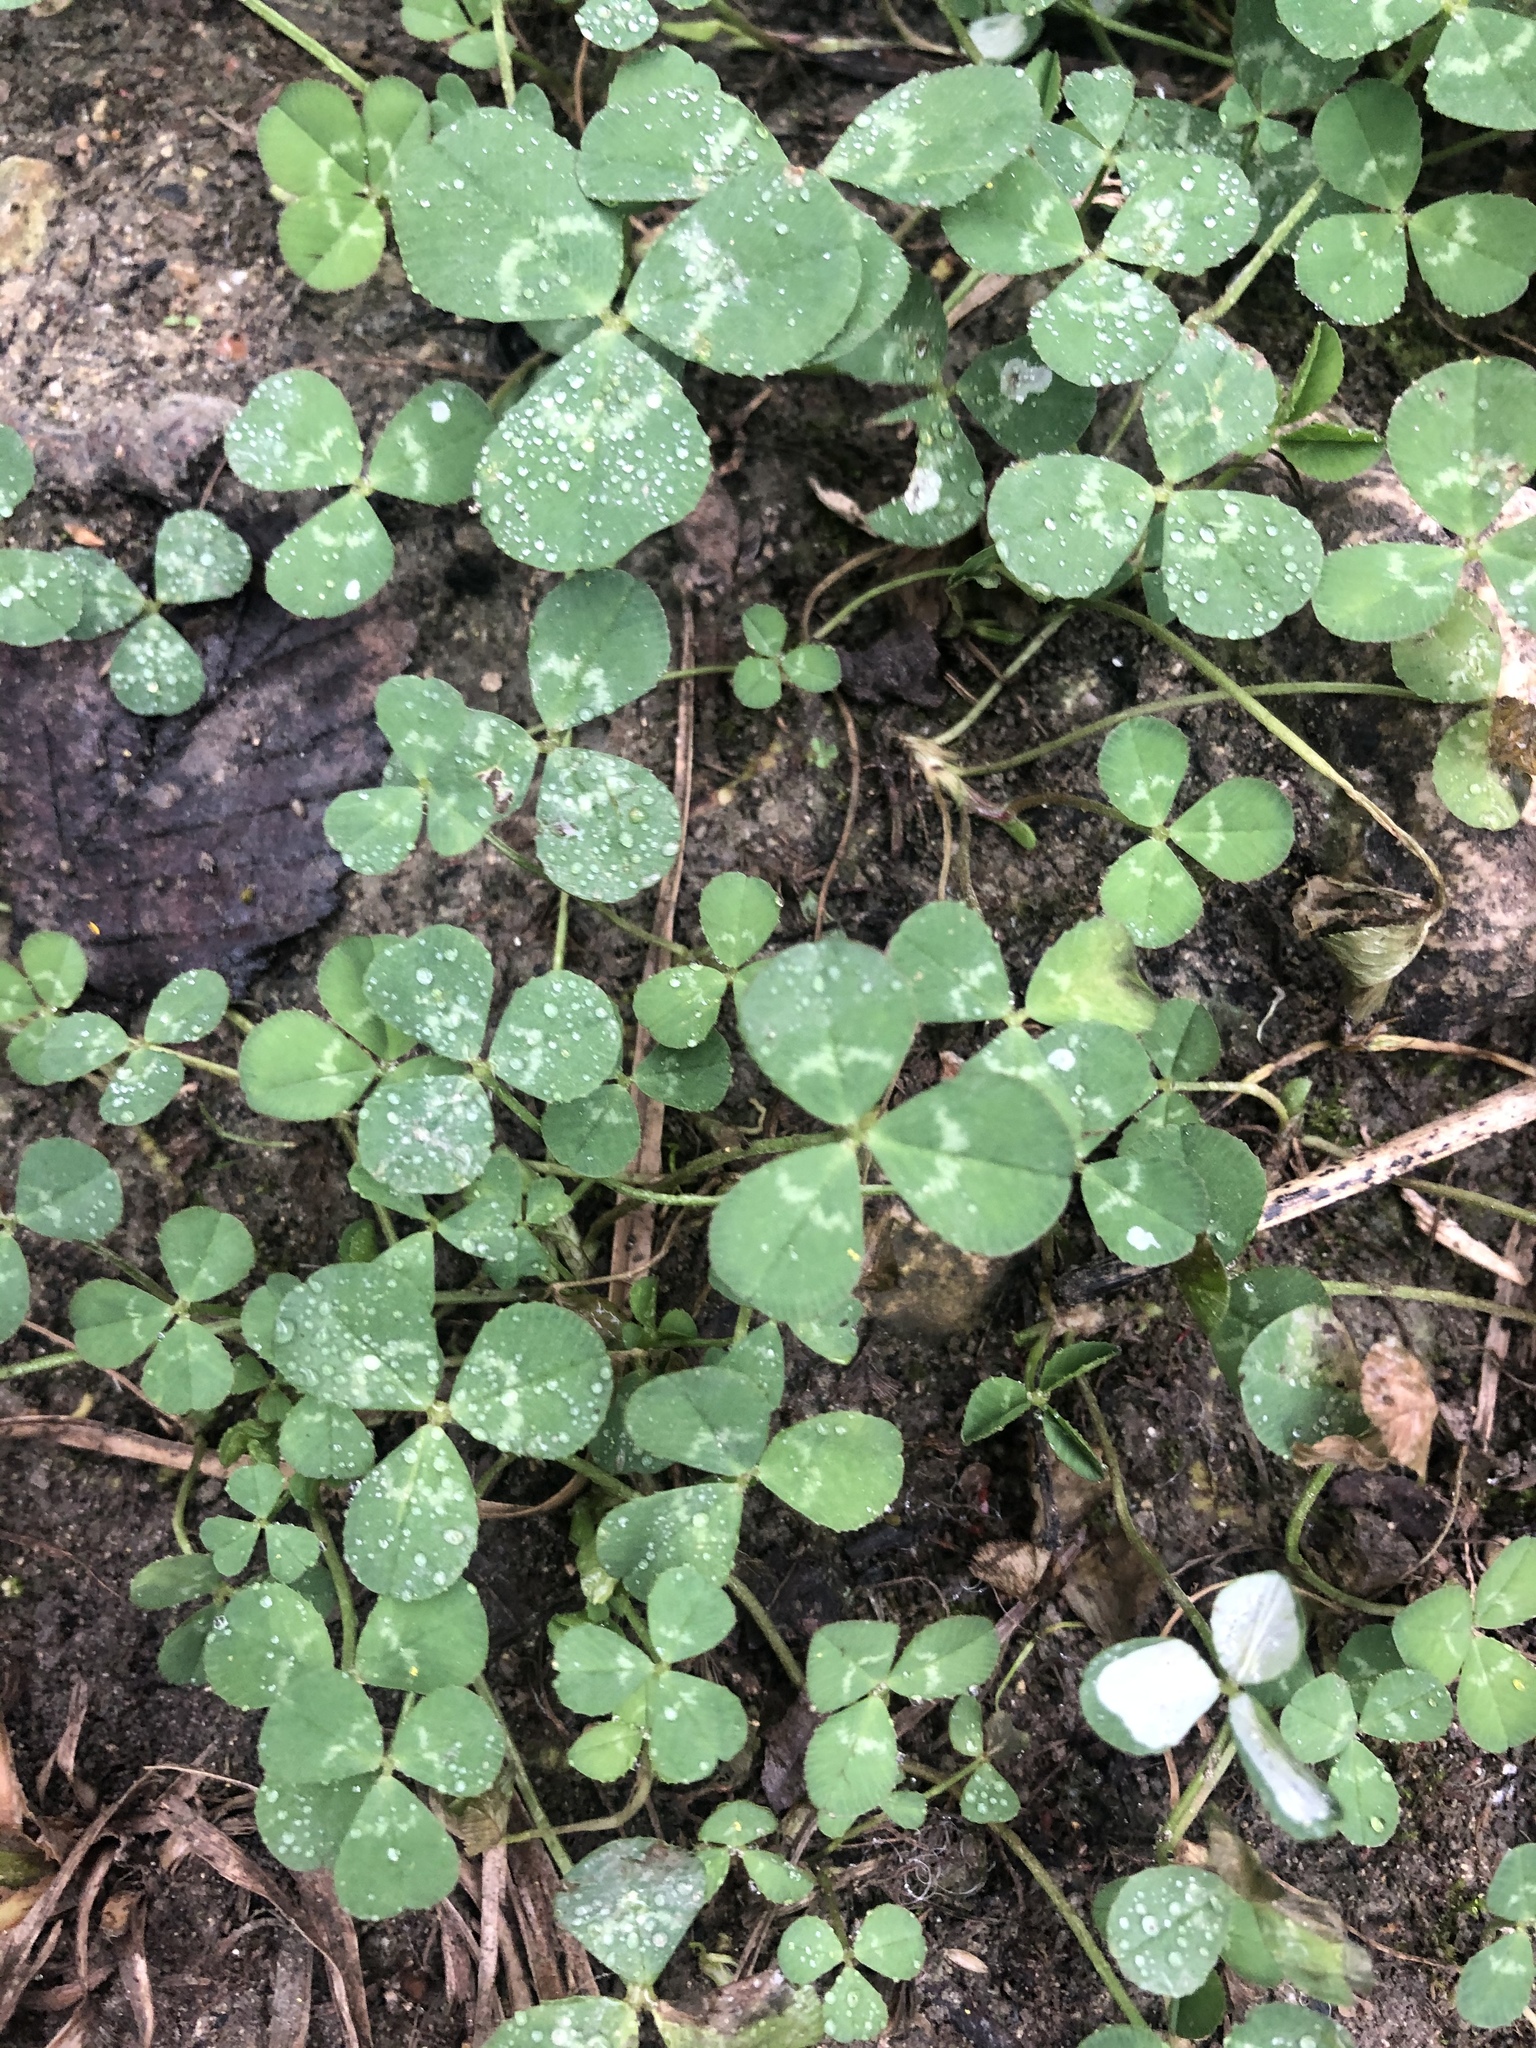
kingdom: Plantae
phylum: Tracheophyta
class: Magnoliopsida
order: Fabales
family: Fabaceae
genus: Trifolium
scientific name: Trifolium repens
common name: White clover
